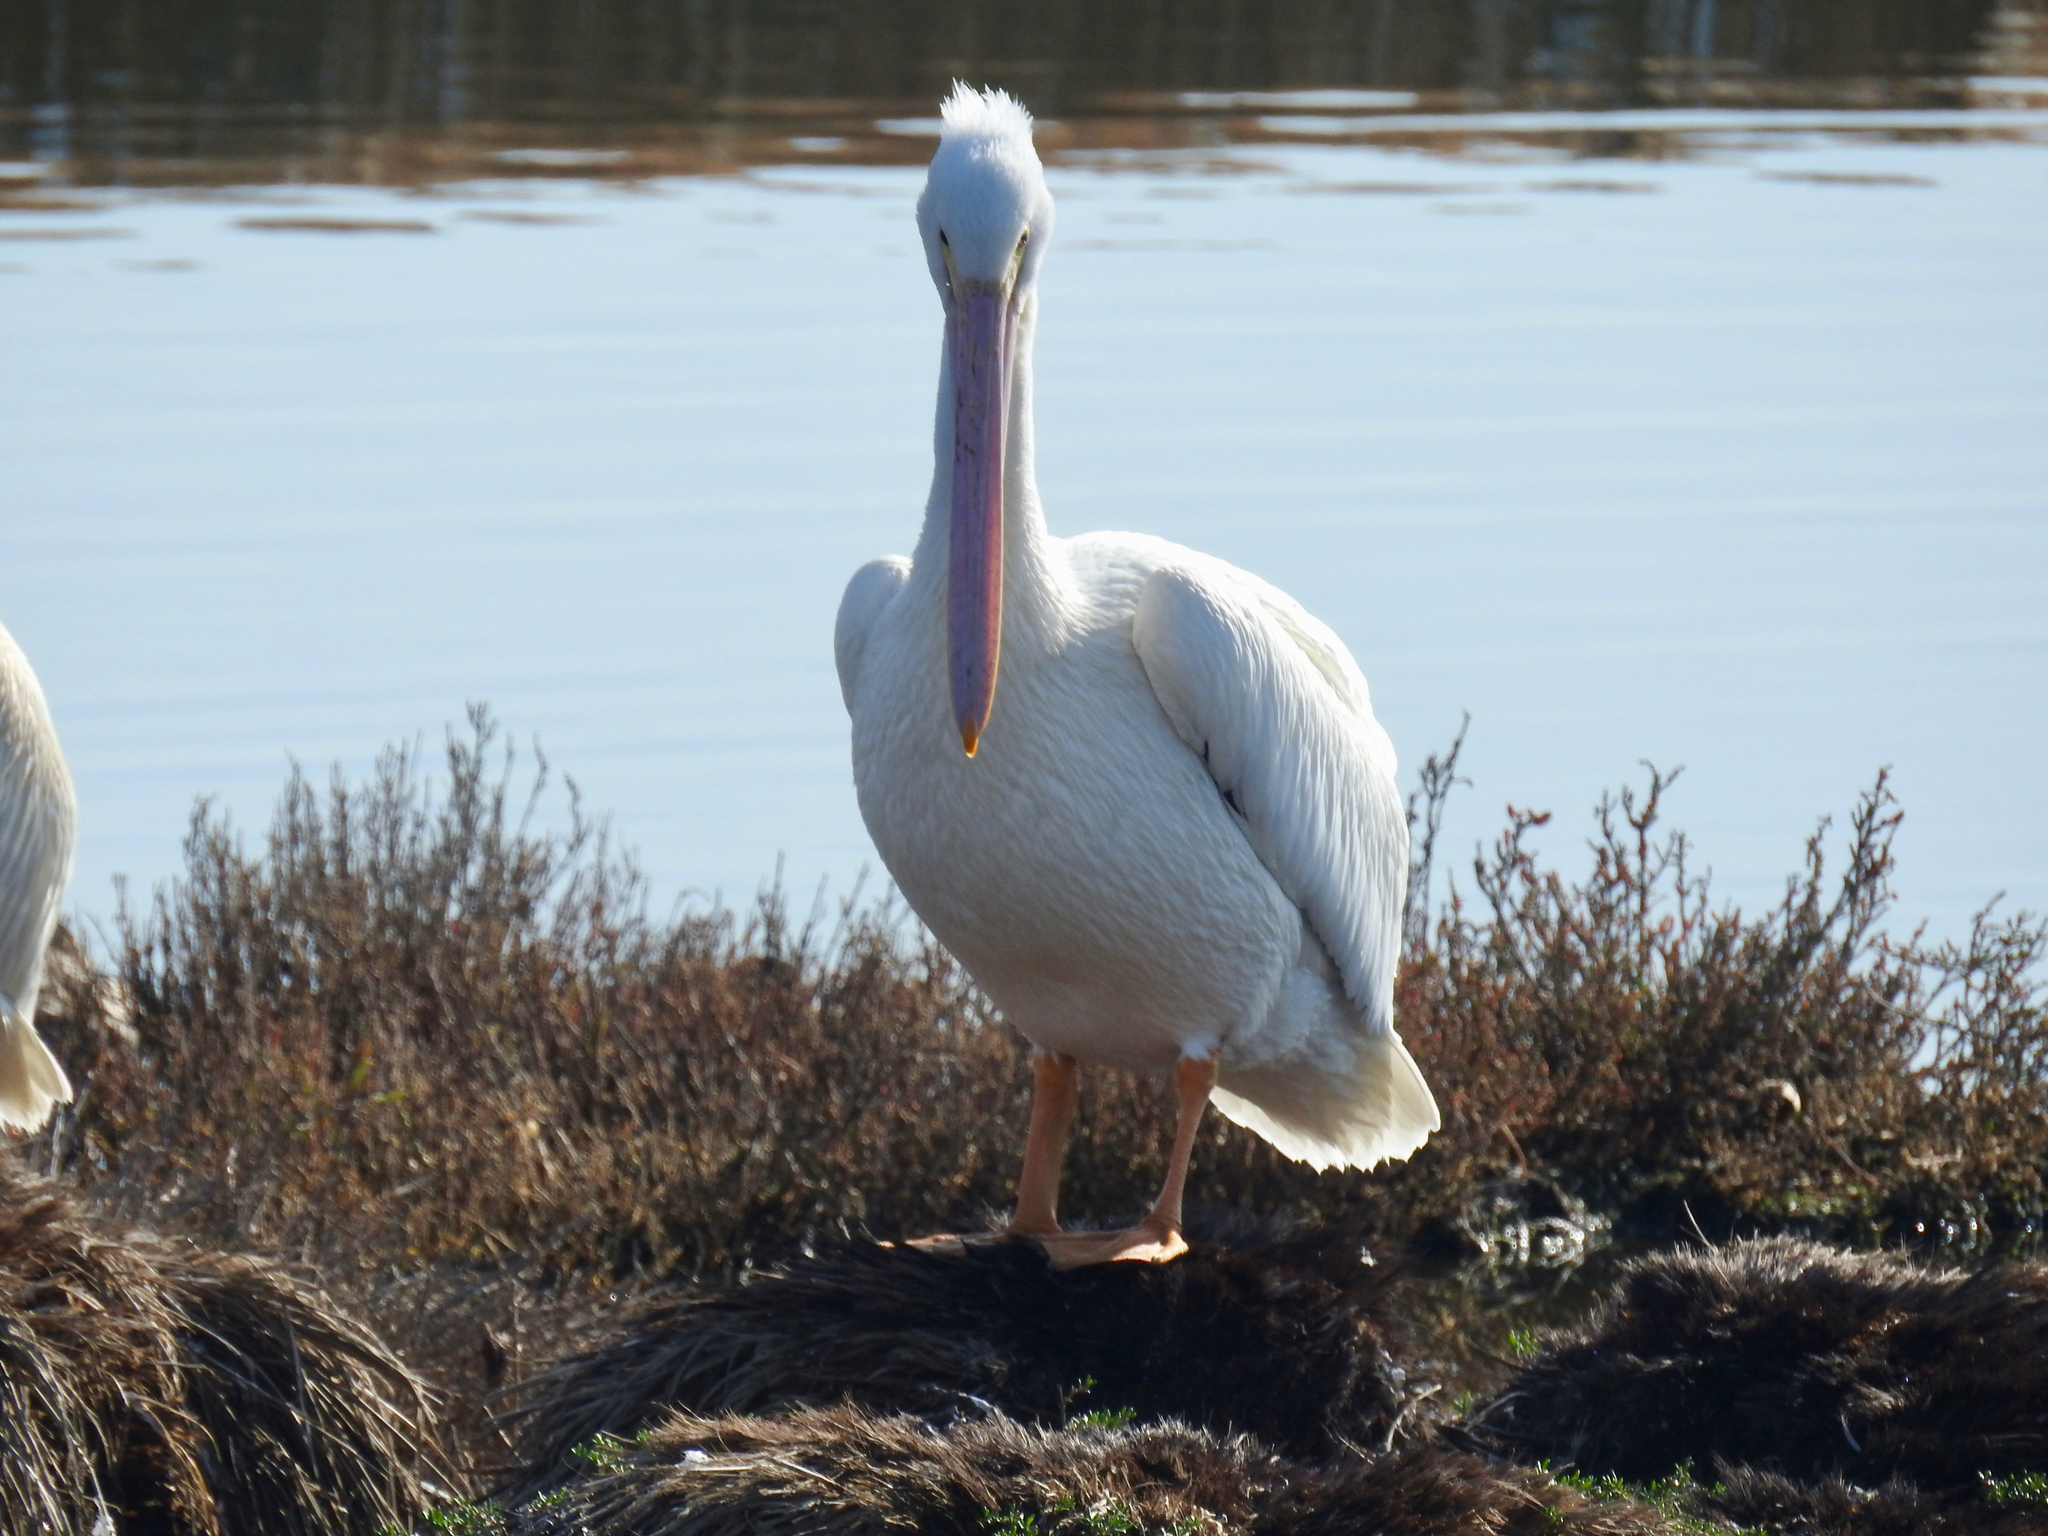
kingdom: Animalia
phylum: Chordata
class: Aves
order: Pelecaniformes
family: Pelecanidae
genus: Pelecanus
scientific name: Pelecanus erythrorhynchos
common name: American white pelican
